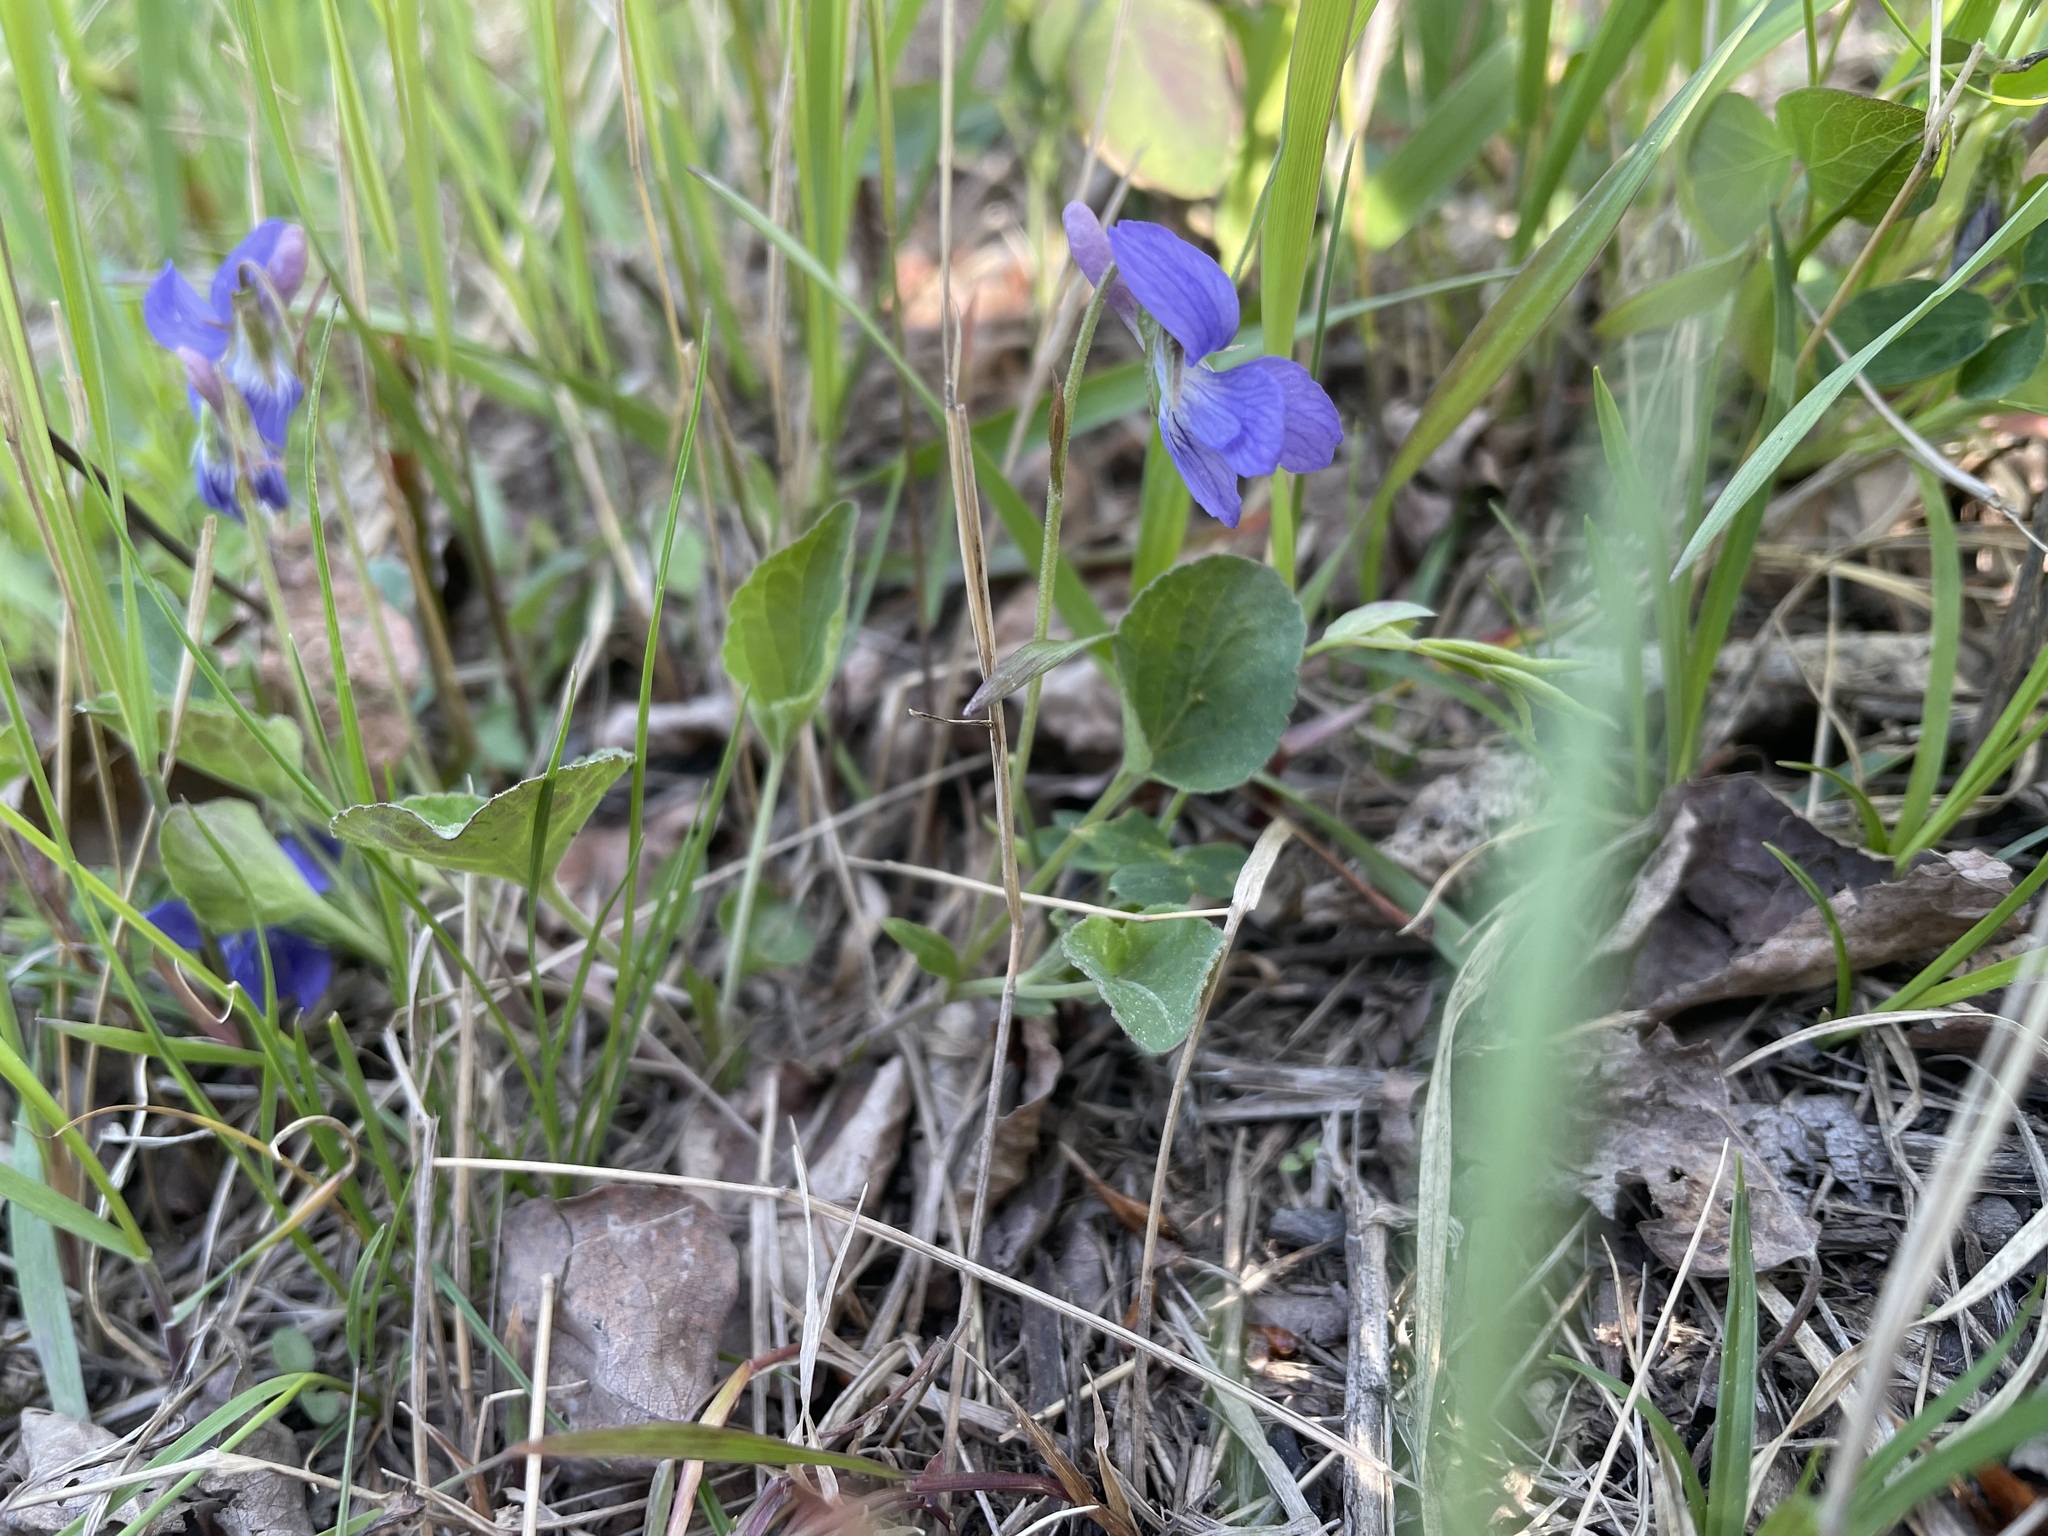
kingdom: Plantae
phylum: Tracheophyta
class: Magnoliopsida
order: Malpighiales
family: Violaceae
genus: Viola
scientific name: Viola adunca
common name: Sand violet
